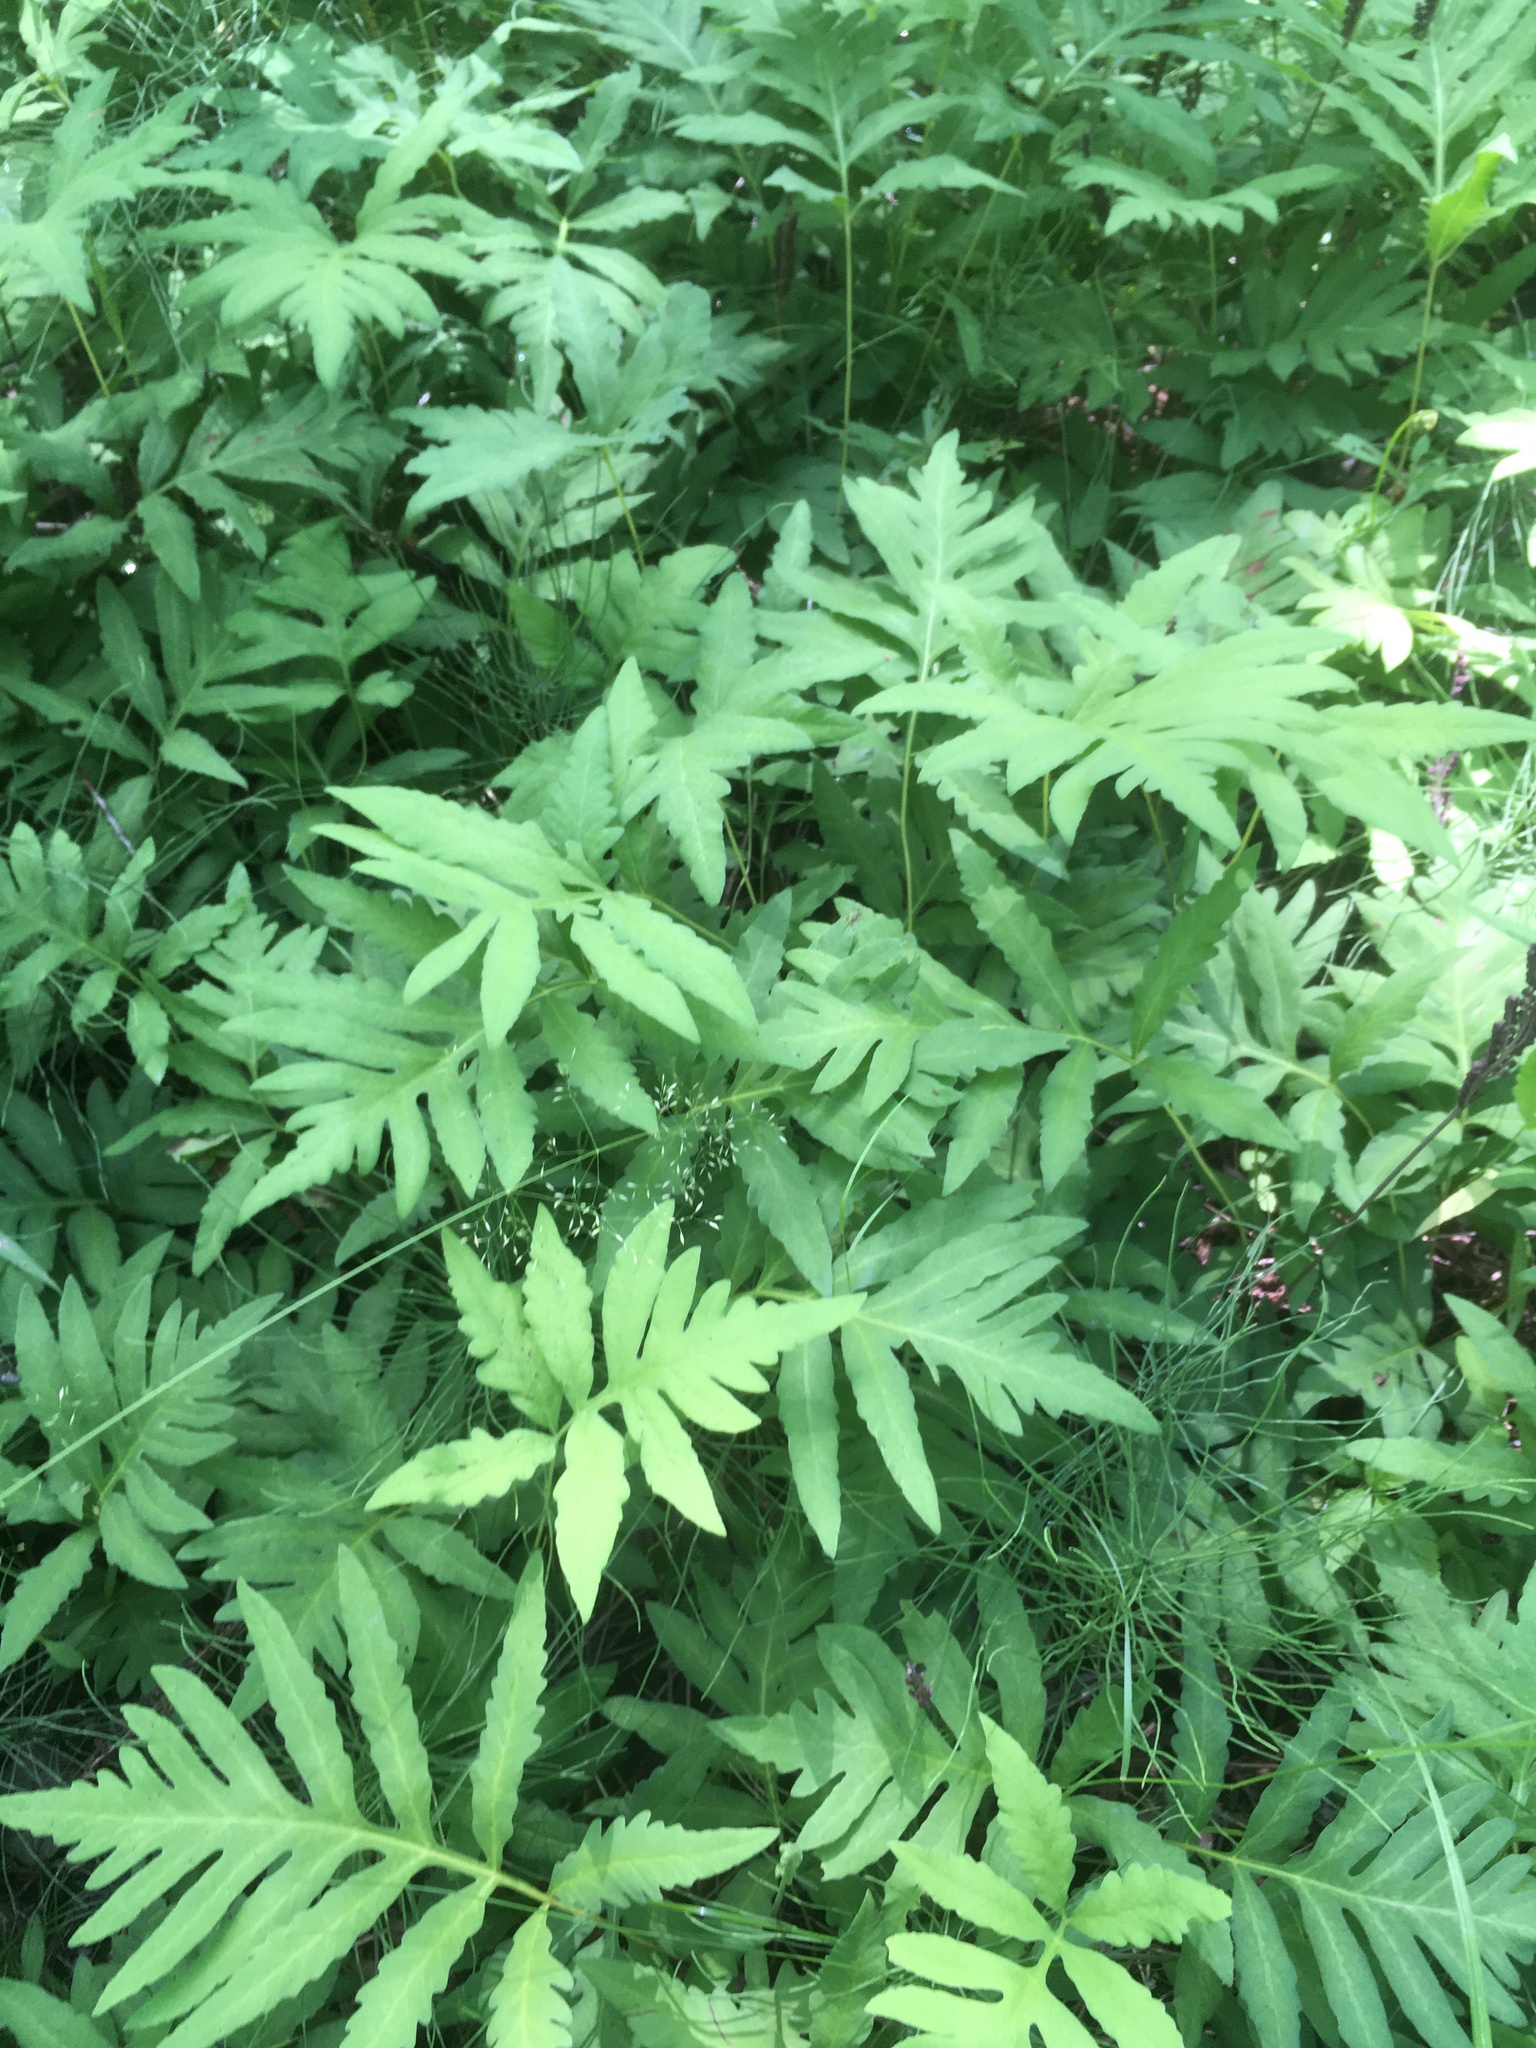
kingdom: Plantae
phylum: Tracheophyta
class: Polypodiopsida
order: Polypodiales
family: Onocleaceae
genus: Onoclea
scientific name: Onoclea sensibilis
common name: Sensitive fern
